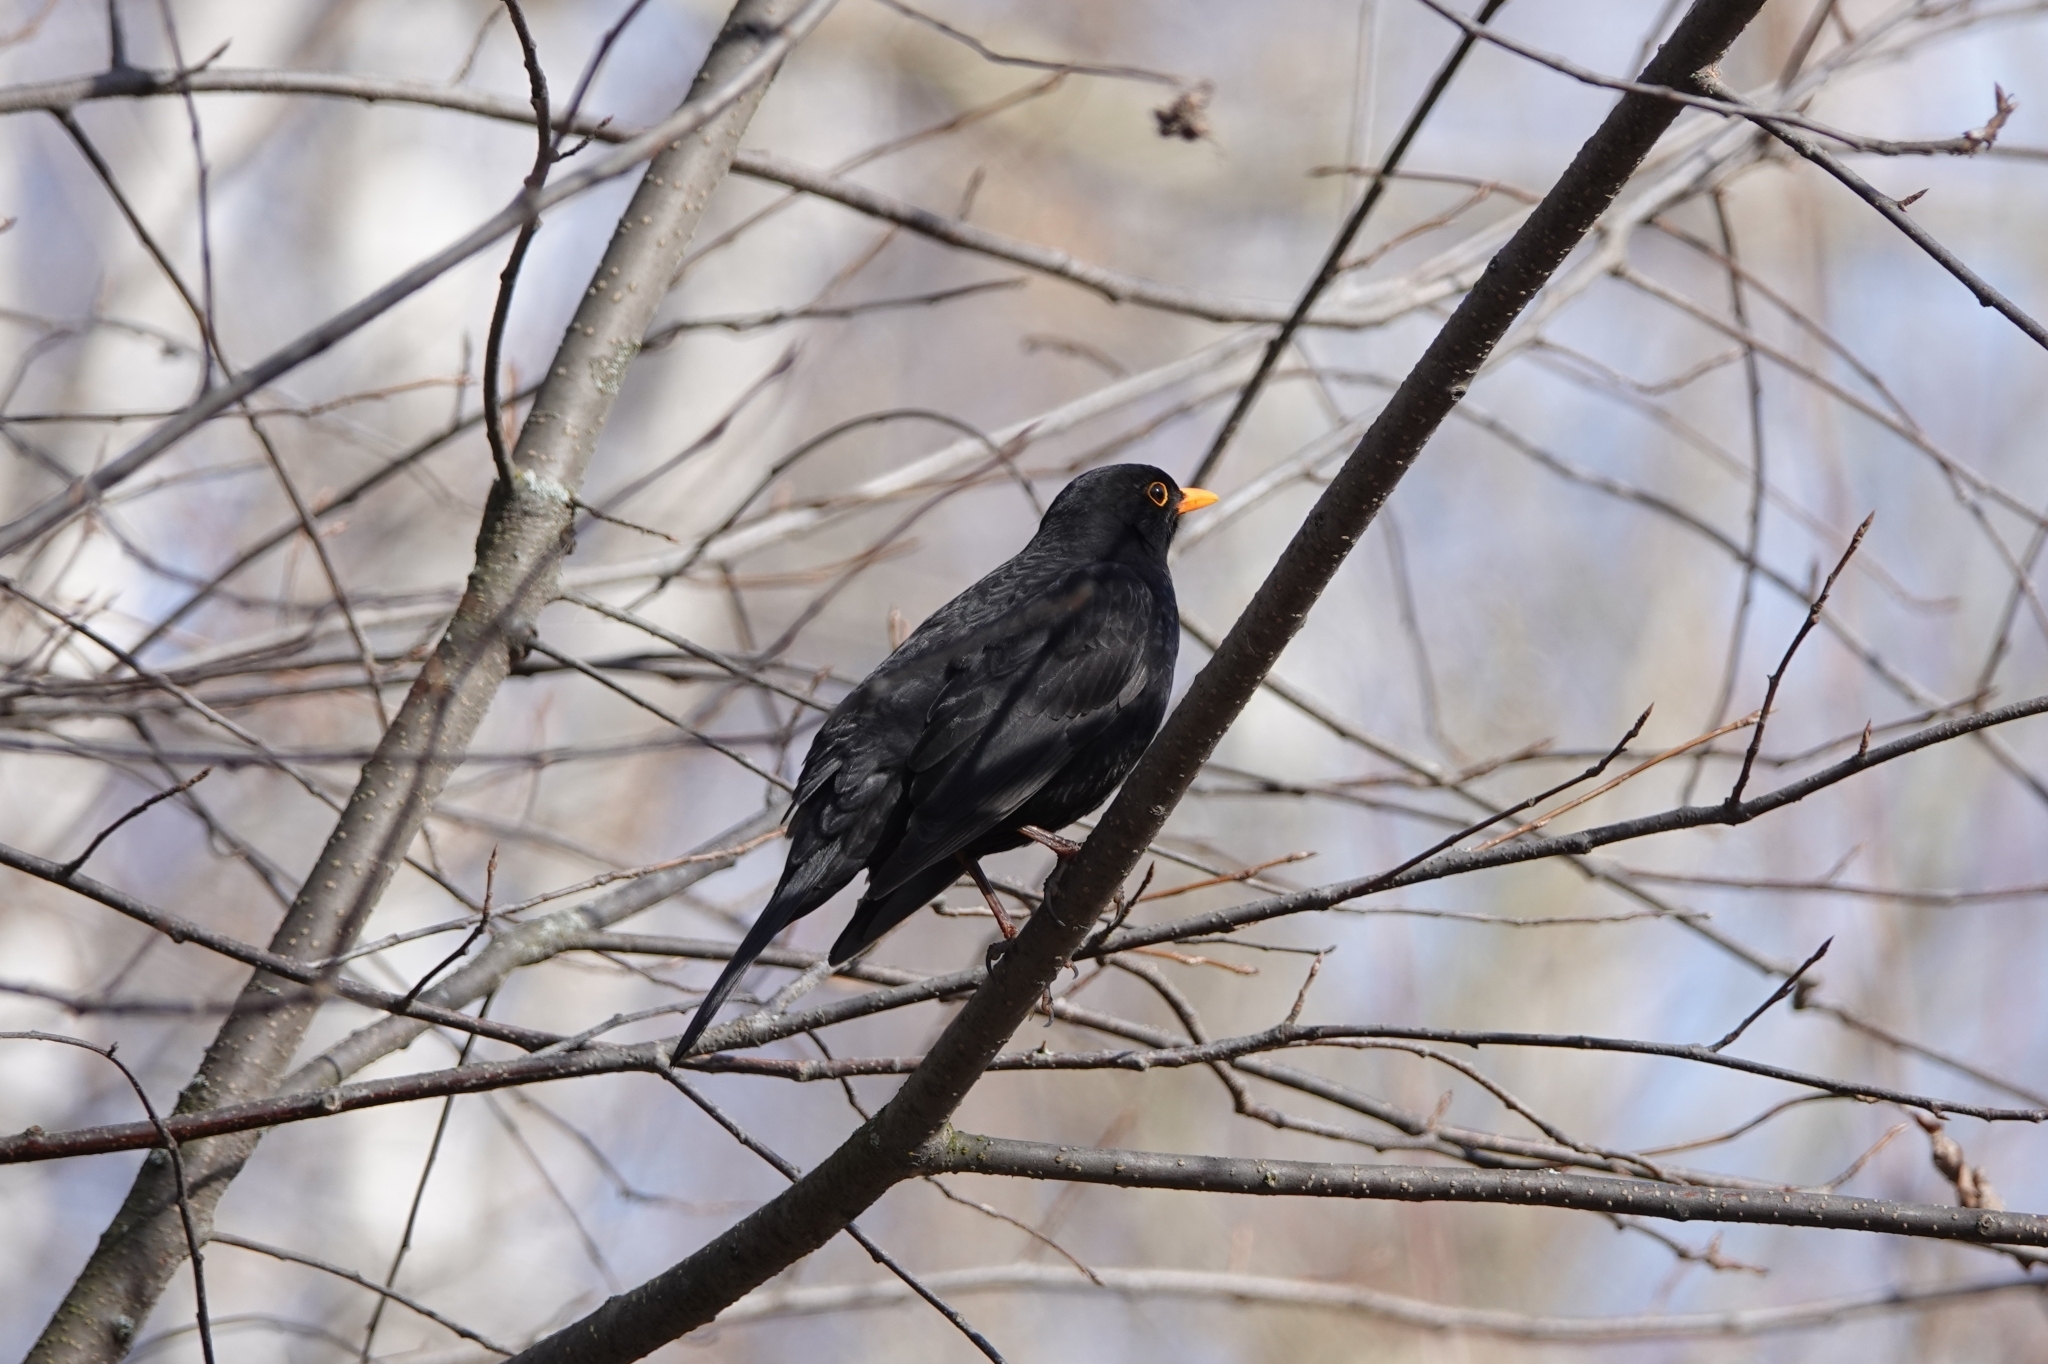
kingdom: Animalia
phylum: Chordata
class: Aves
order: Passeriformes
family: Turdidae
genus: Turdus
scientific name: Turdus merula
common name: Common blackbird
